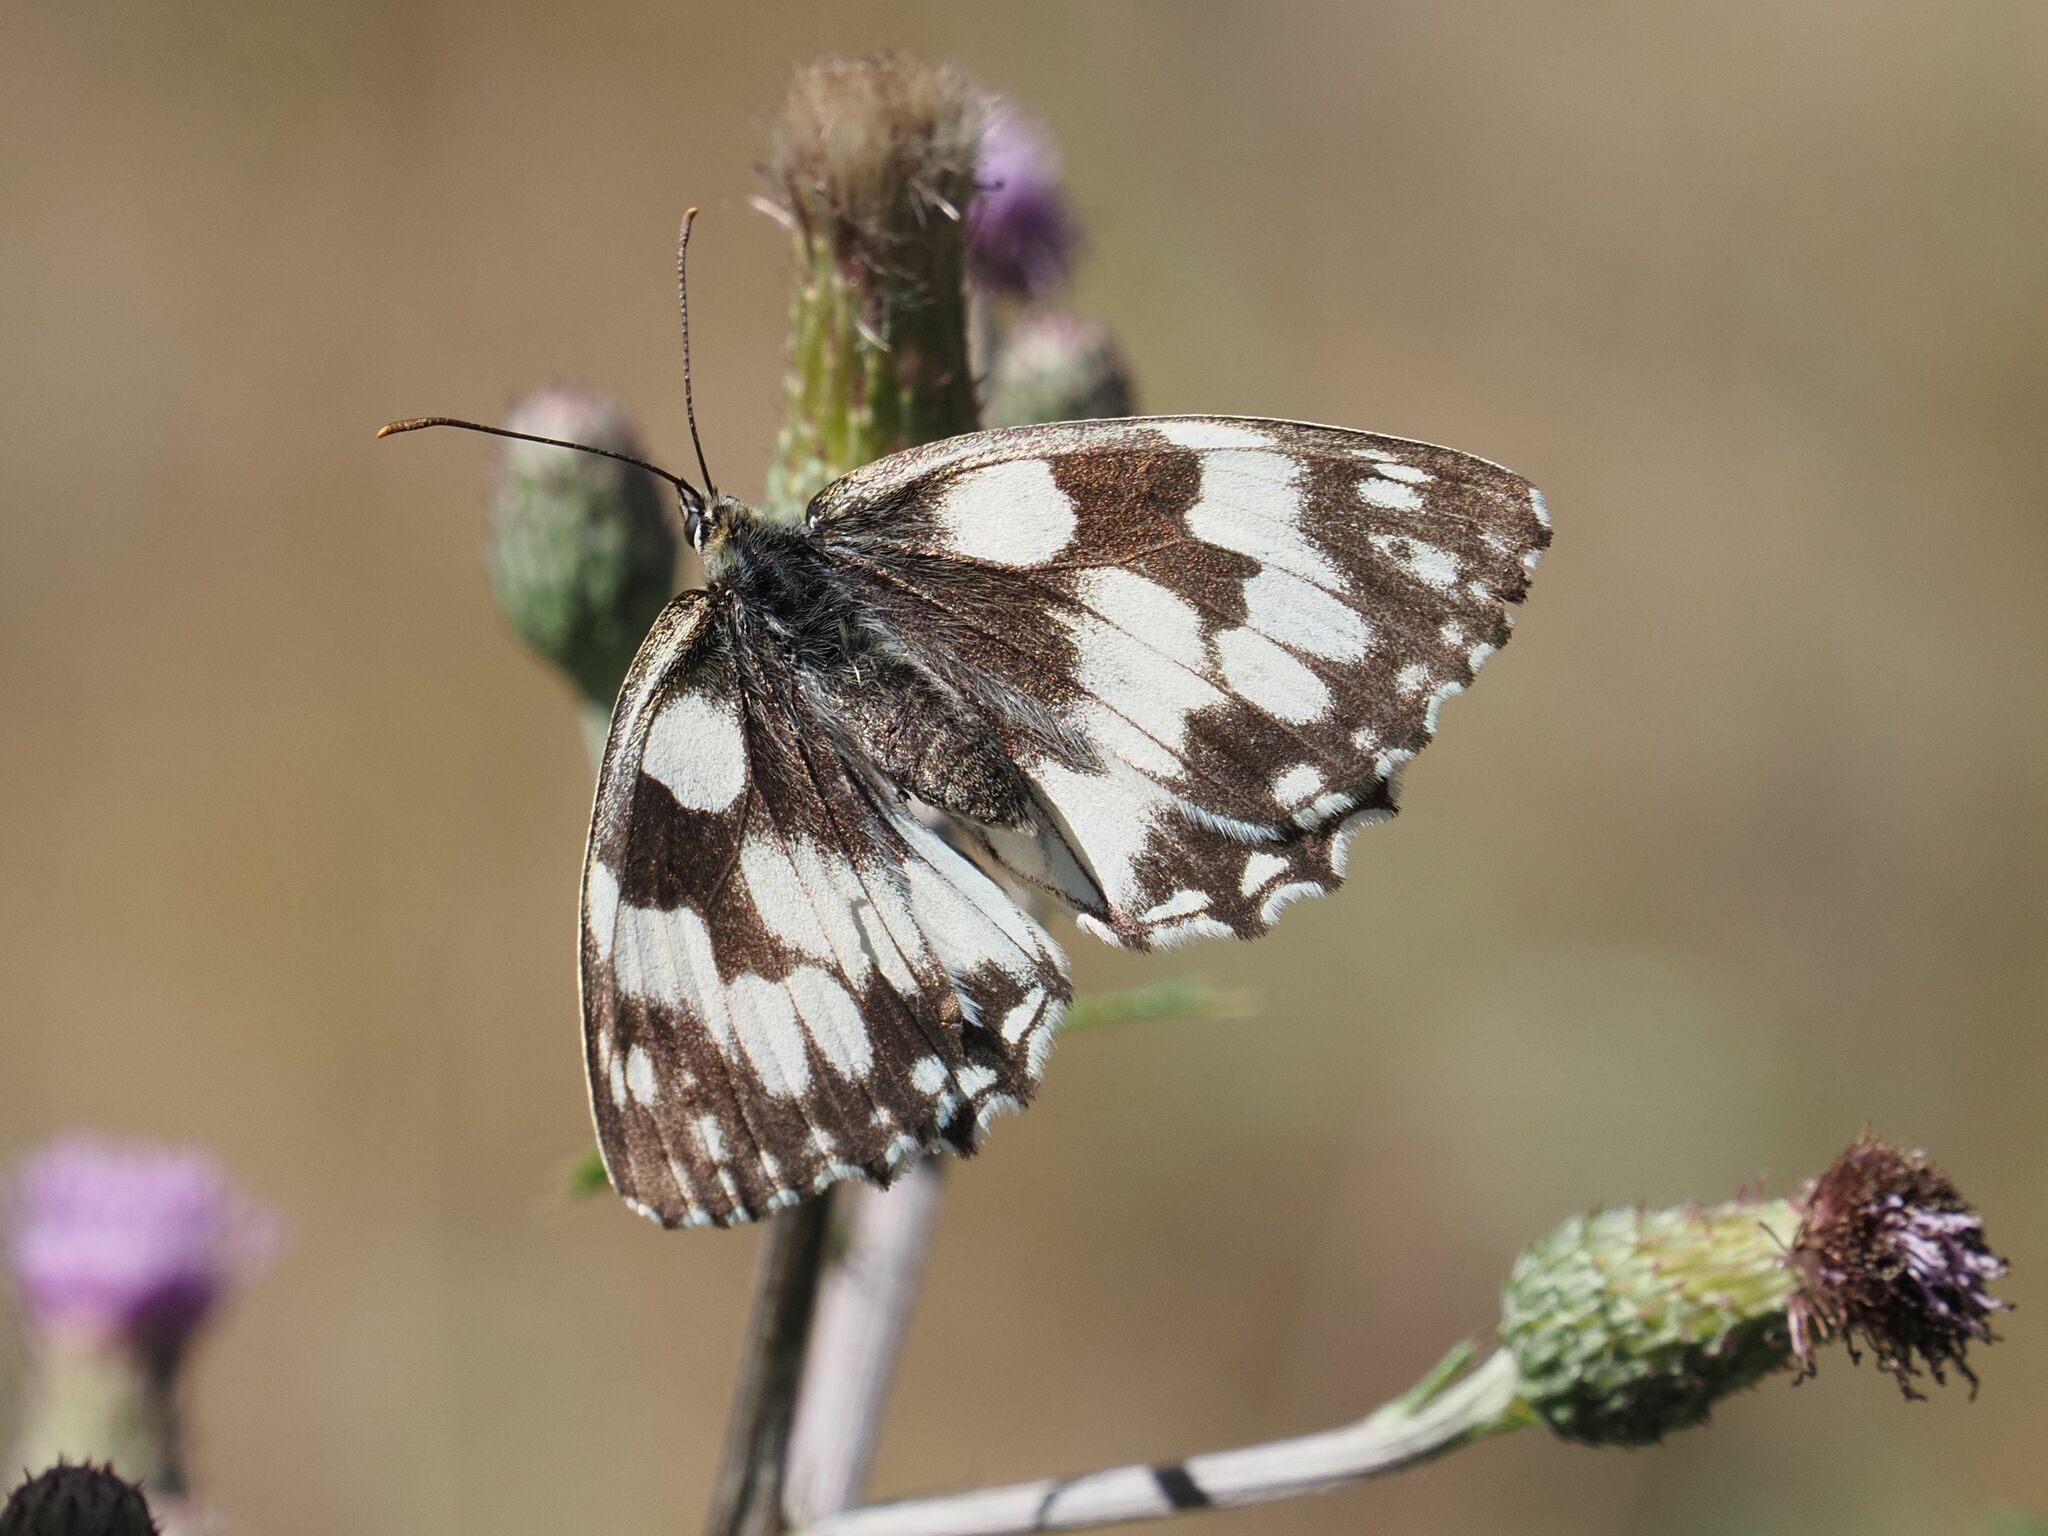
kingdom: Animalia
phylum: Arthropoda
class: Insecta
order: Lepidoptera
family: Nymphalidae
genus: Melanargia
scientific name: Melanargia galathea
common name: Marbled white
